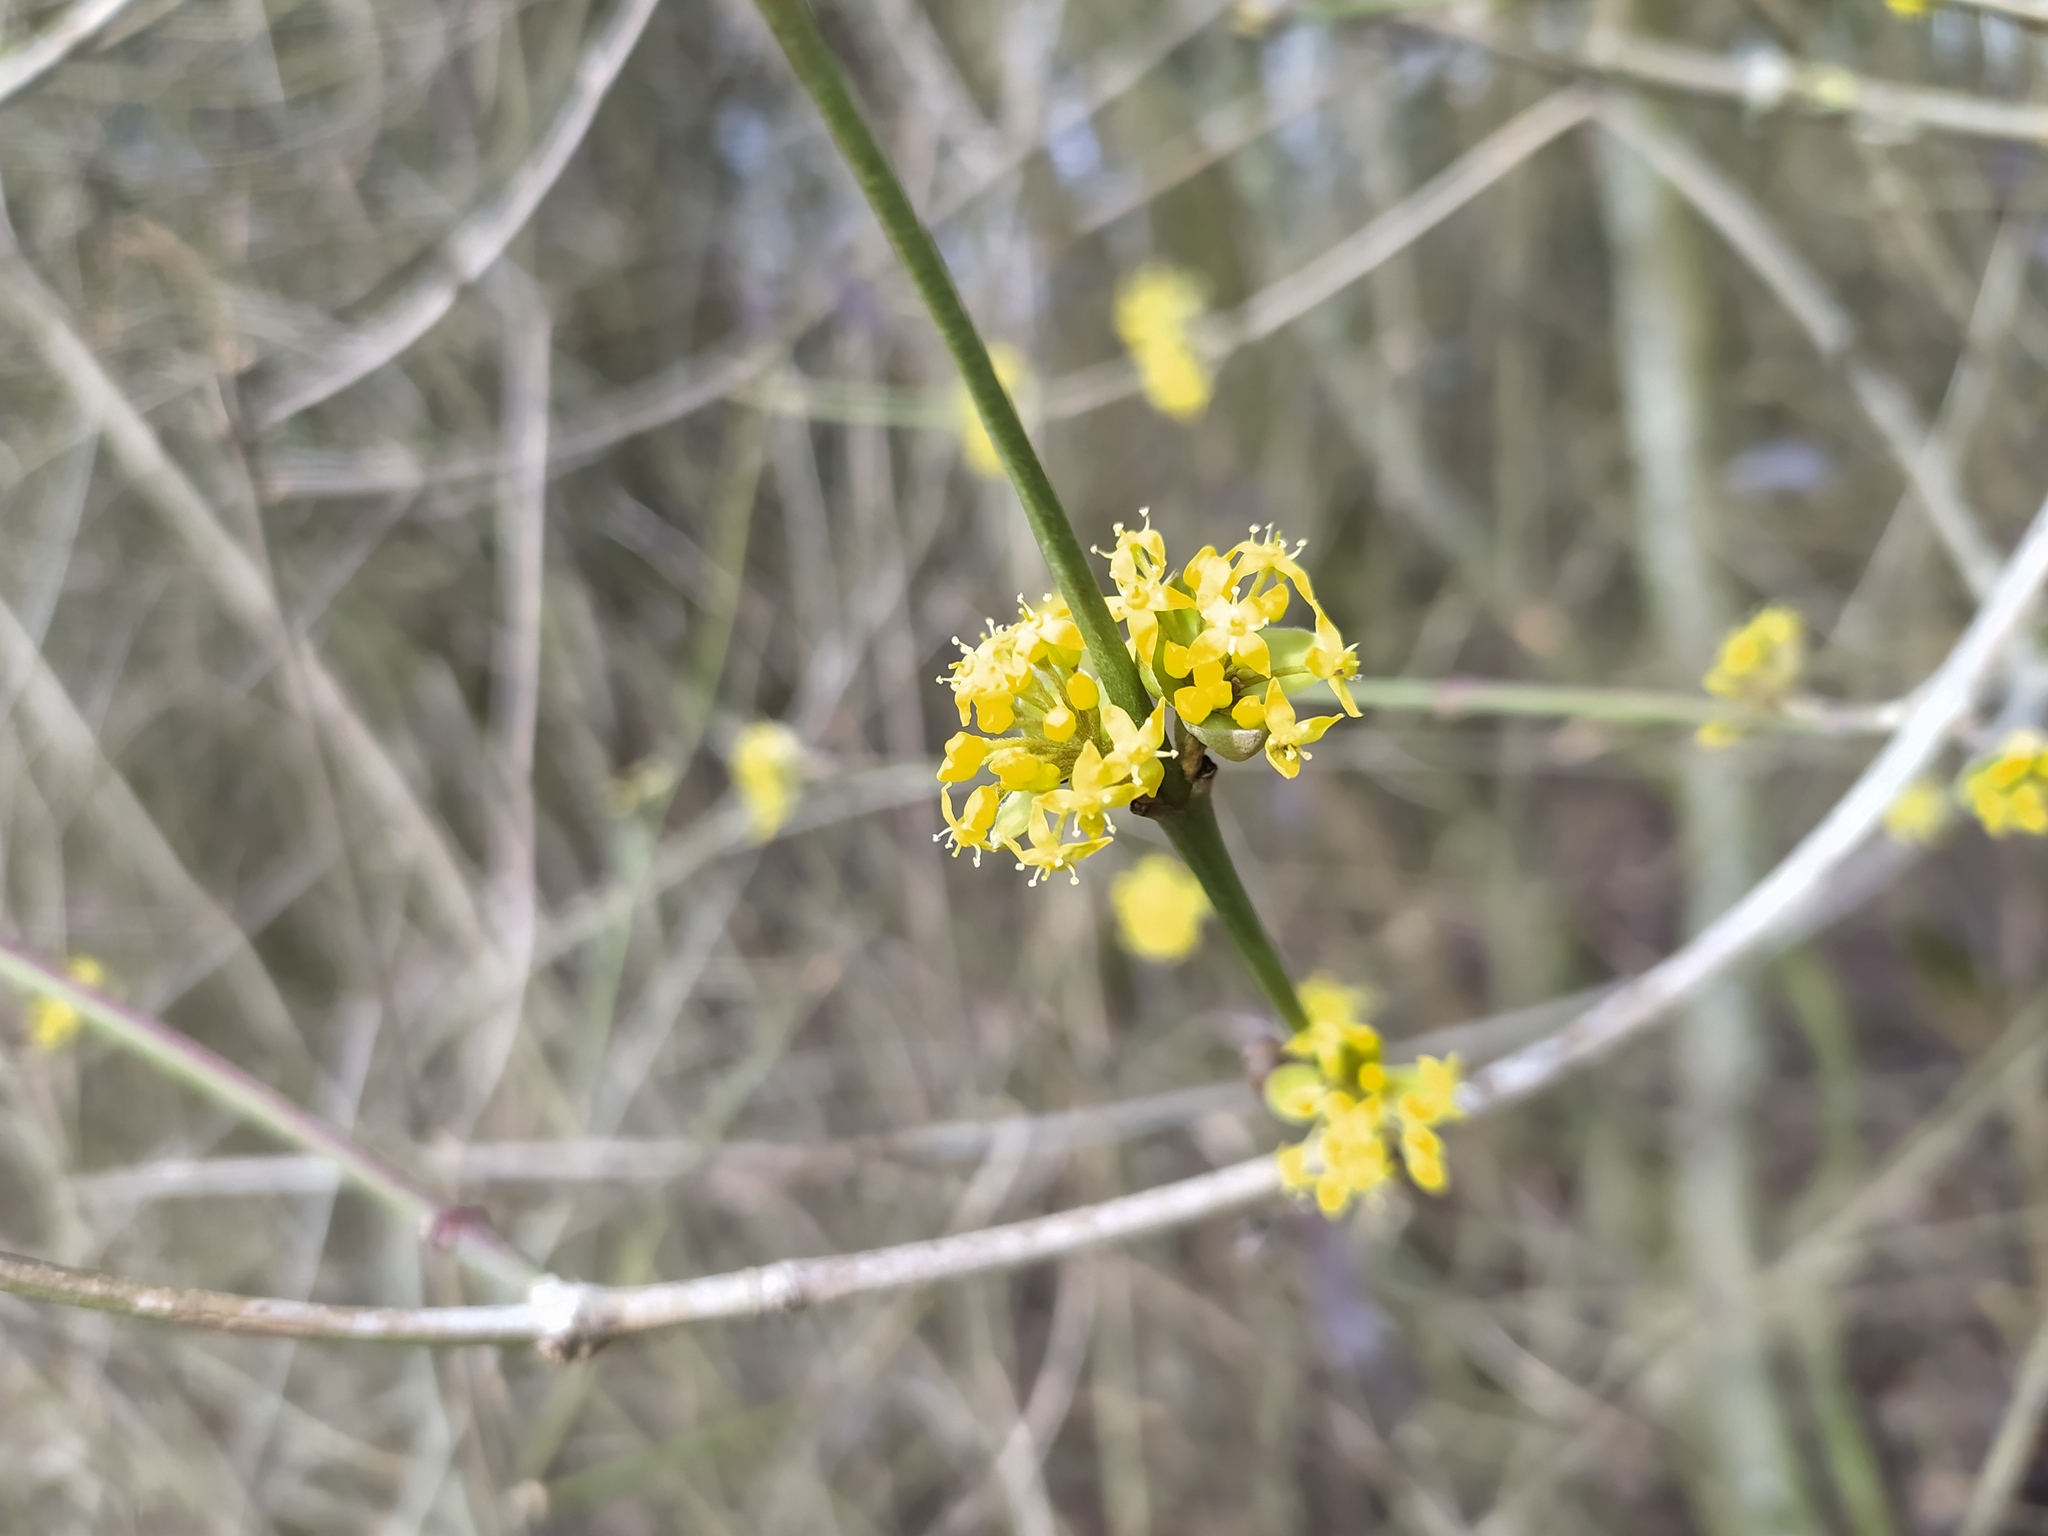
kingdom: Plantae
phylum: Tracheophyta
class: Magnoliopsida
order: Cornales
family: Cornaceae
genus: Cornus
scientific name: Cornus mas
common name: Cornelian-cherry
